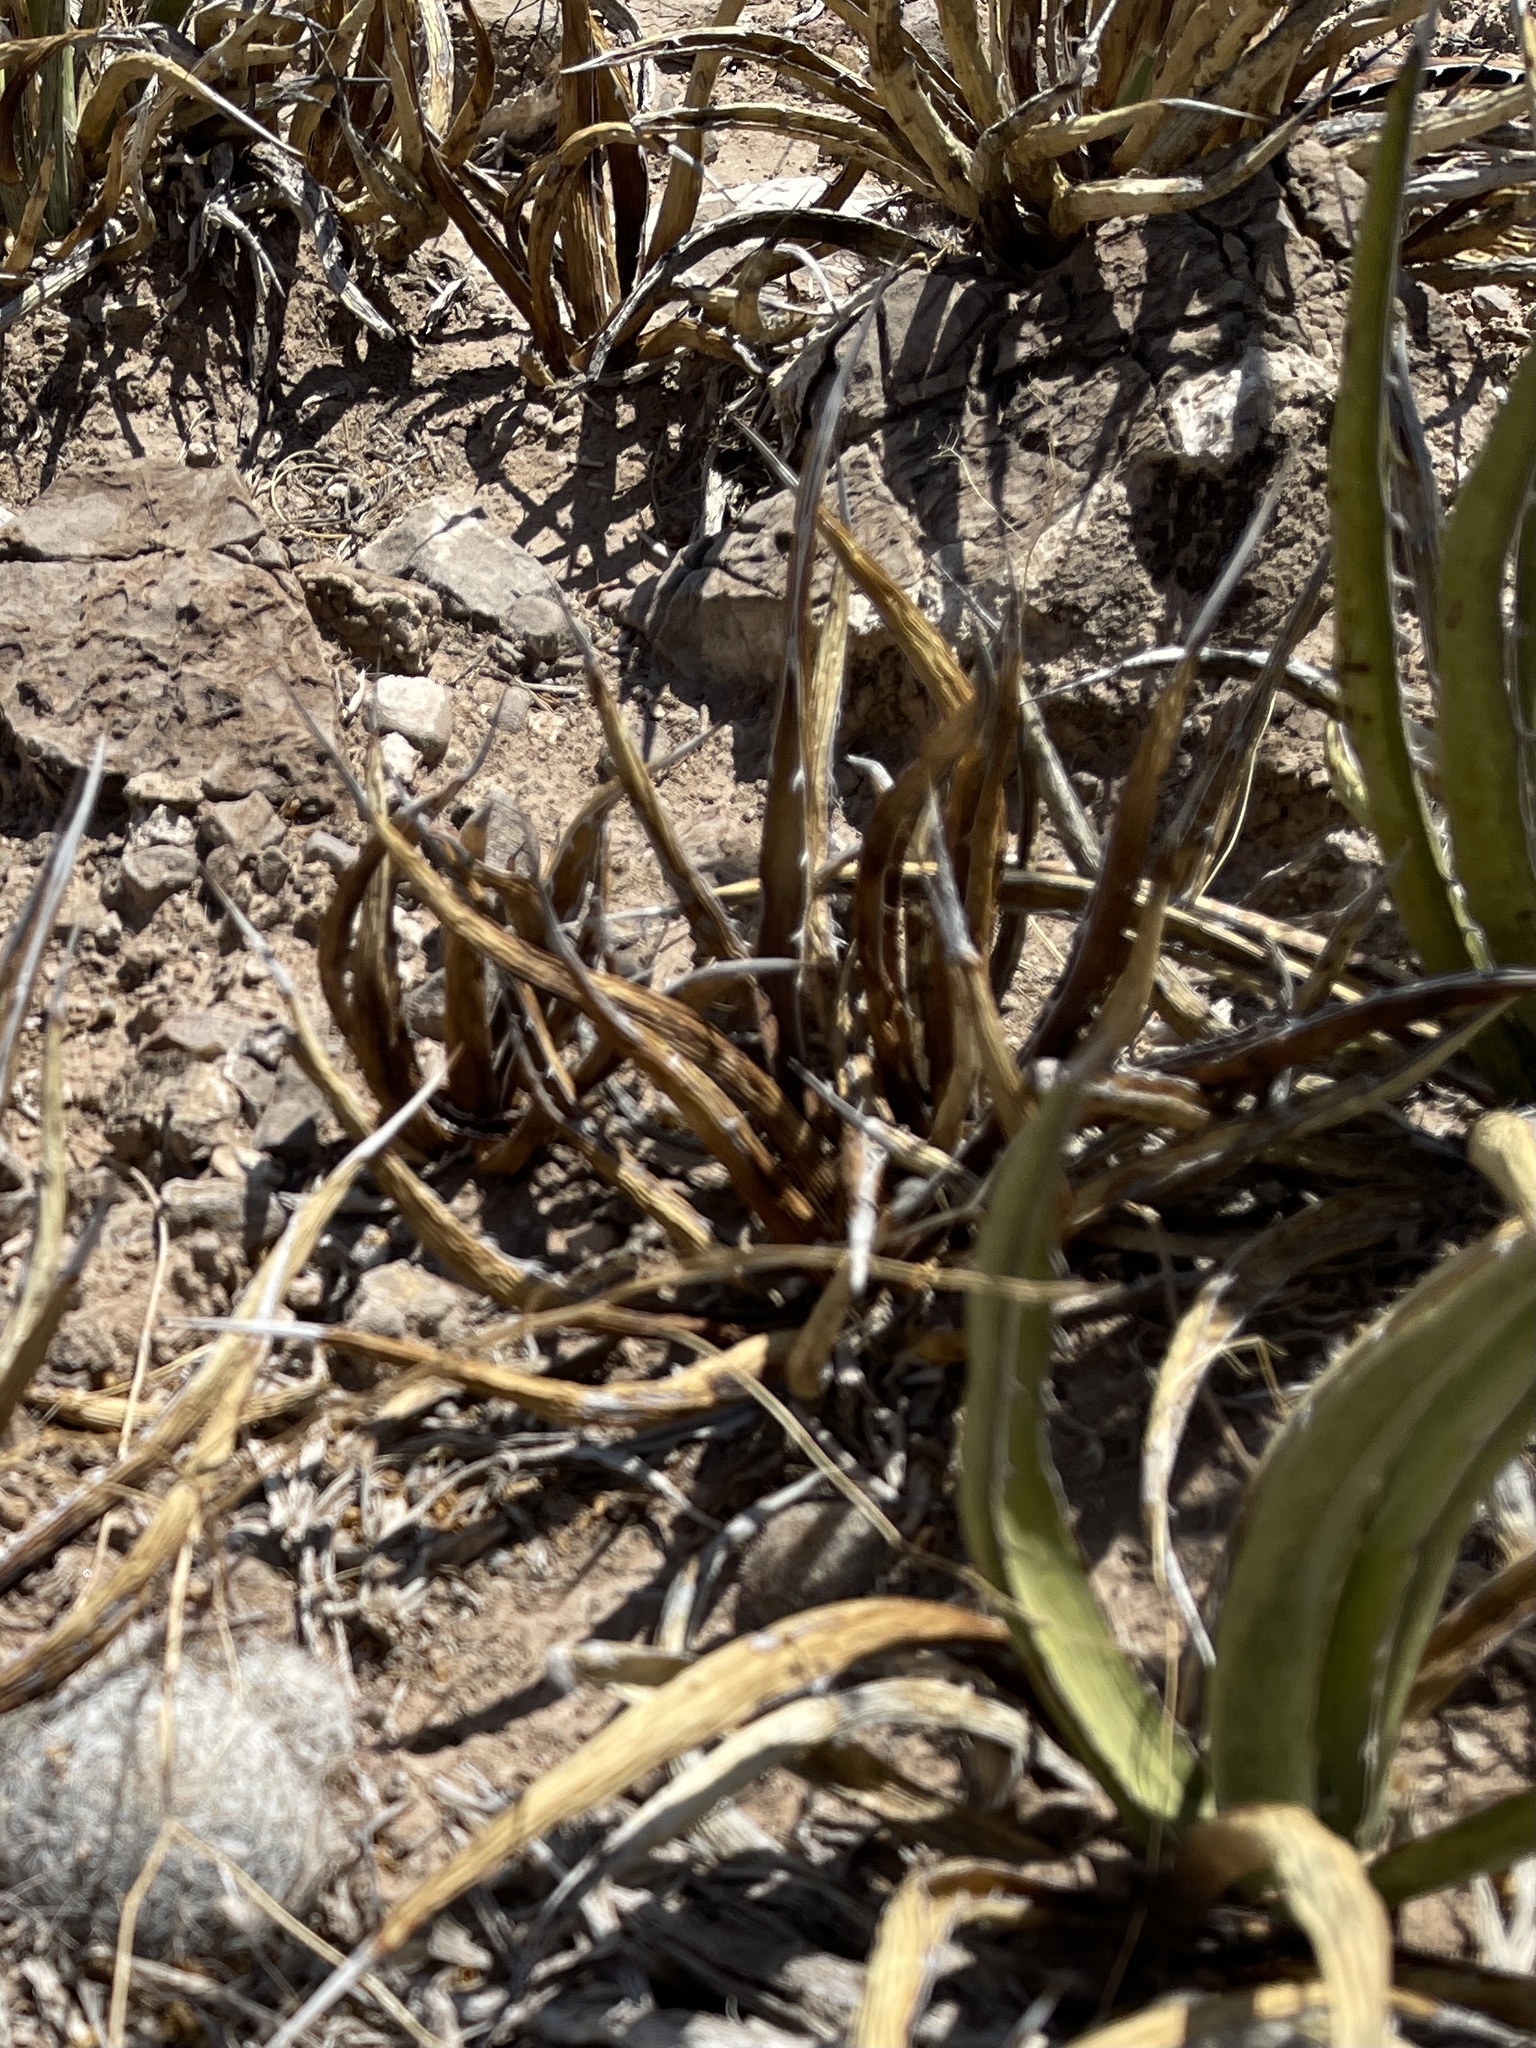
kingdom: Plantae
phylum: Tracheophyta
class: Liliopsida
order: Asparagales
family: Asparagaceae
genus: Agave
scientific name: Agave lechuguilla
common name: Lecheguilla agave
